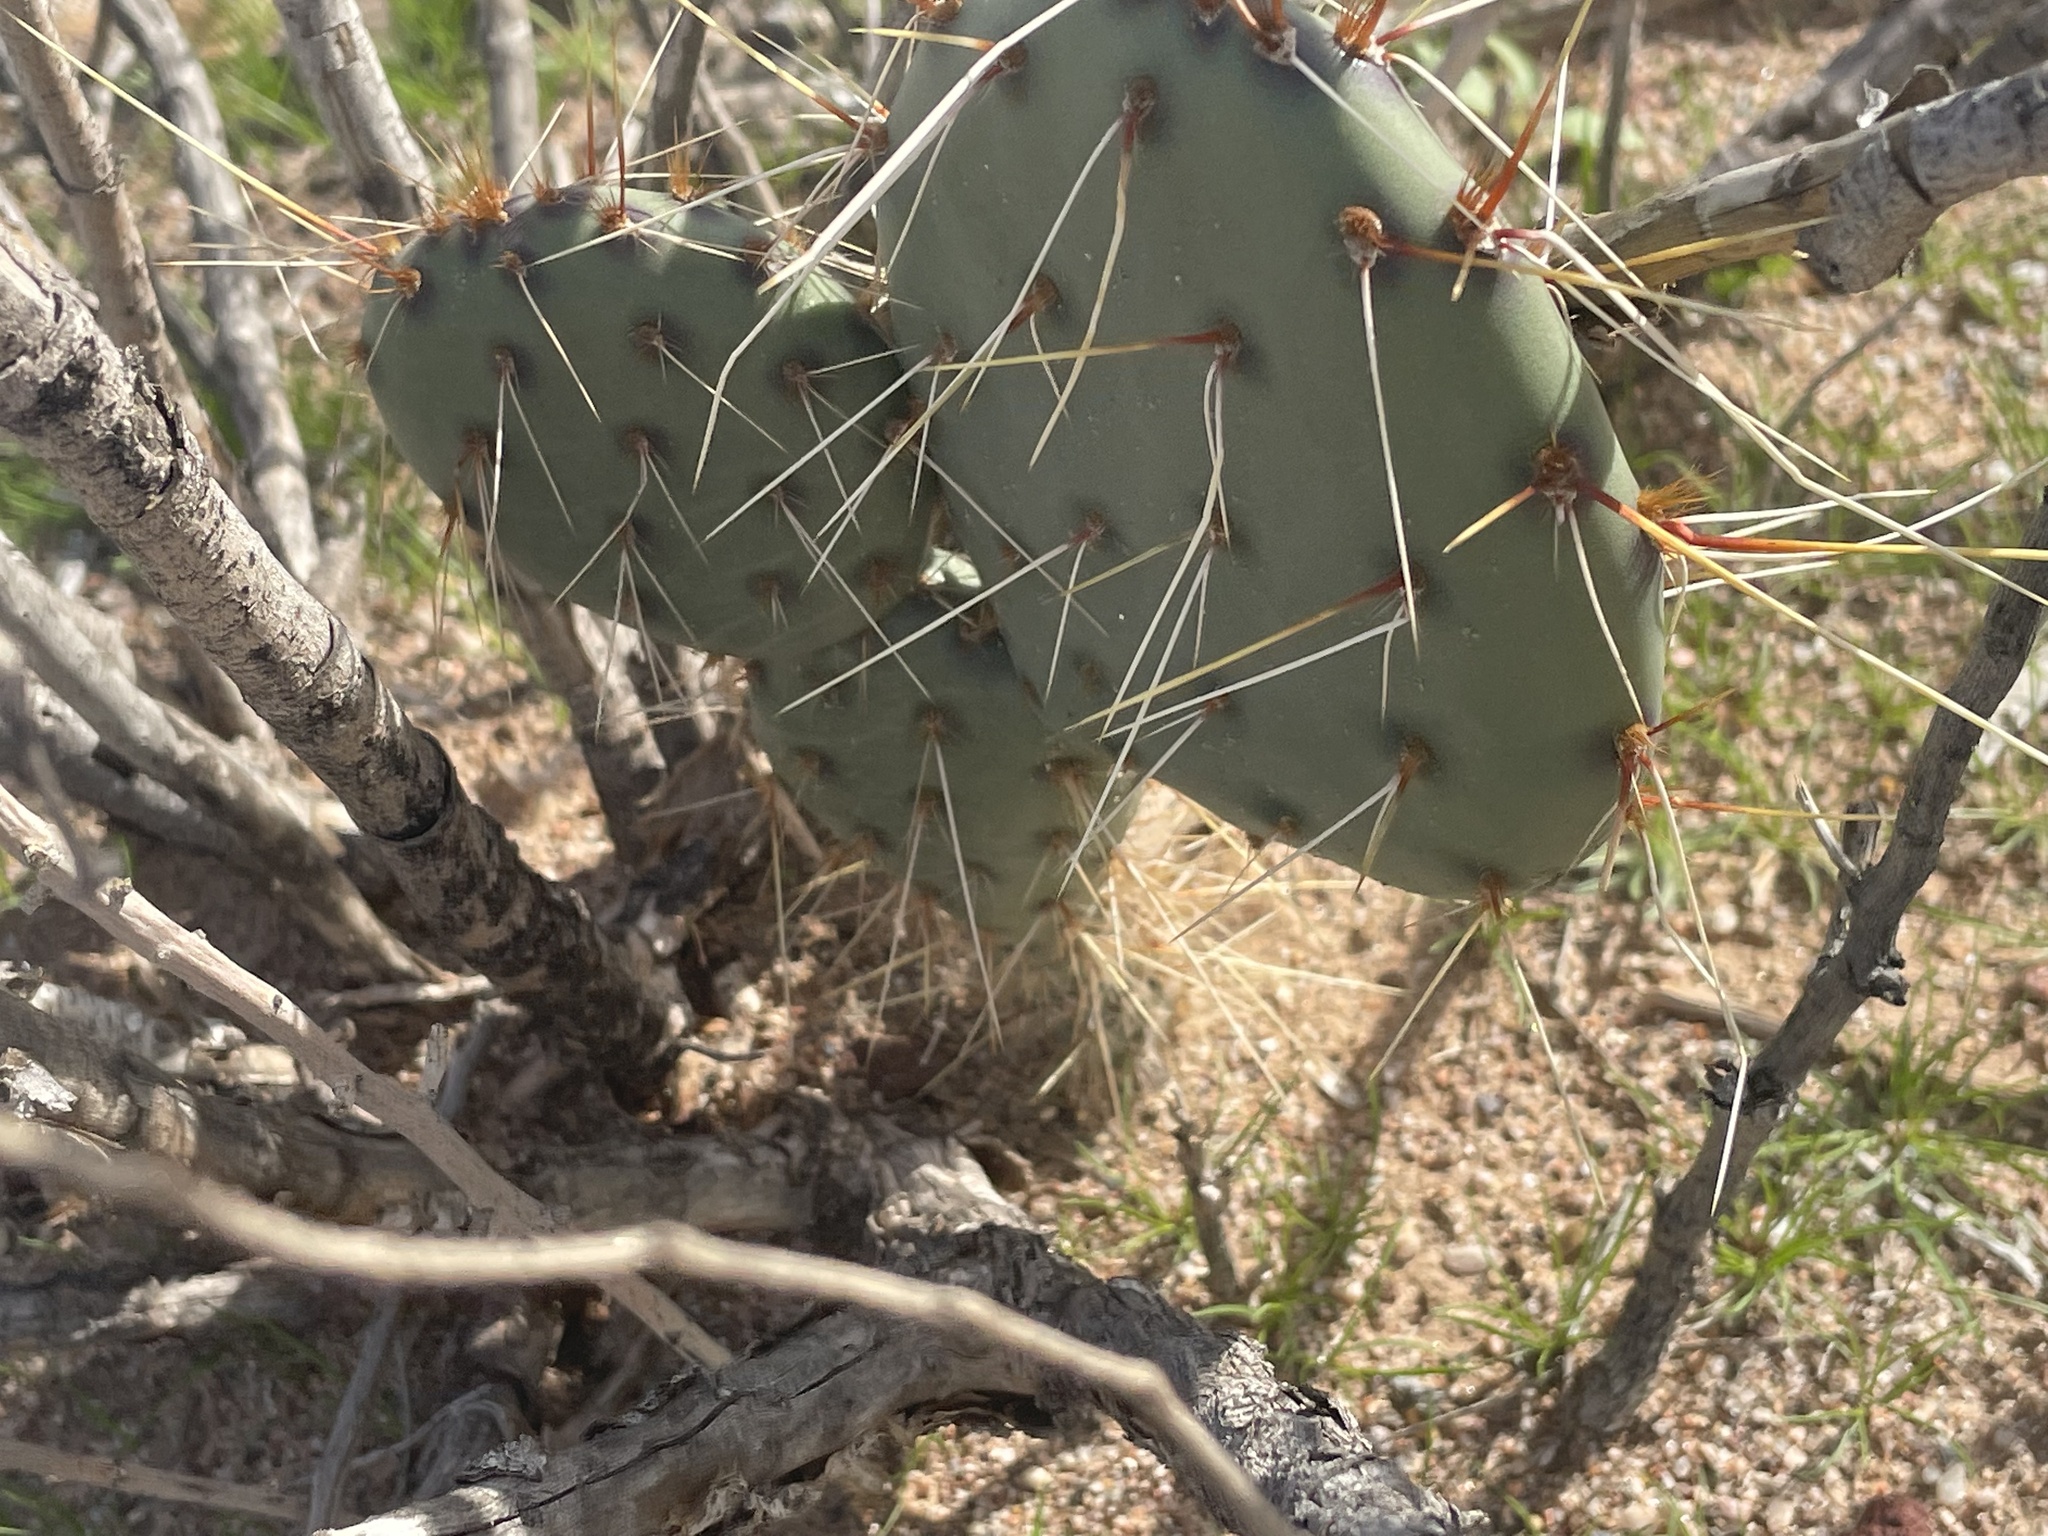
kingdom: Plantae
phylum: Tracheophyta
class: Magnoliopsida
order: Caryophyllales
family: Cactaceae
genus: Opuntia
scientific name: Opuntia engelmannii
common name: Cactus-apple
